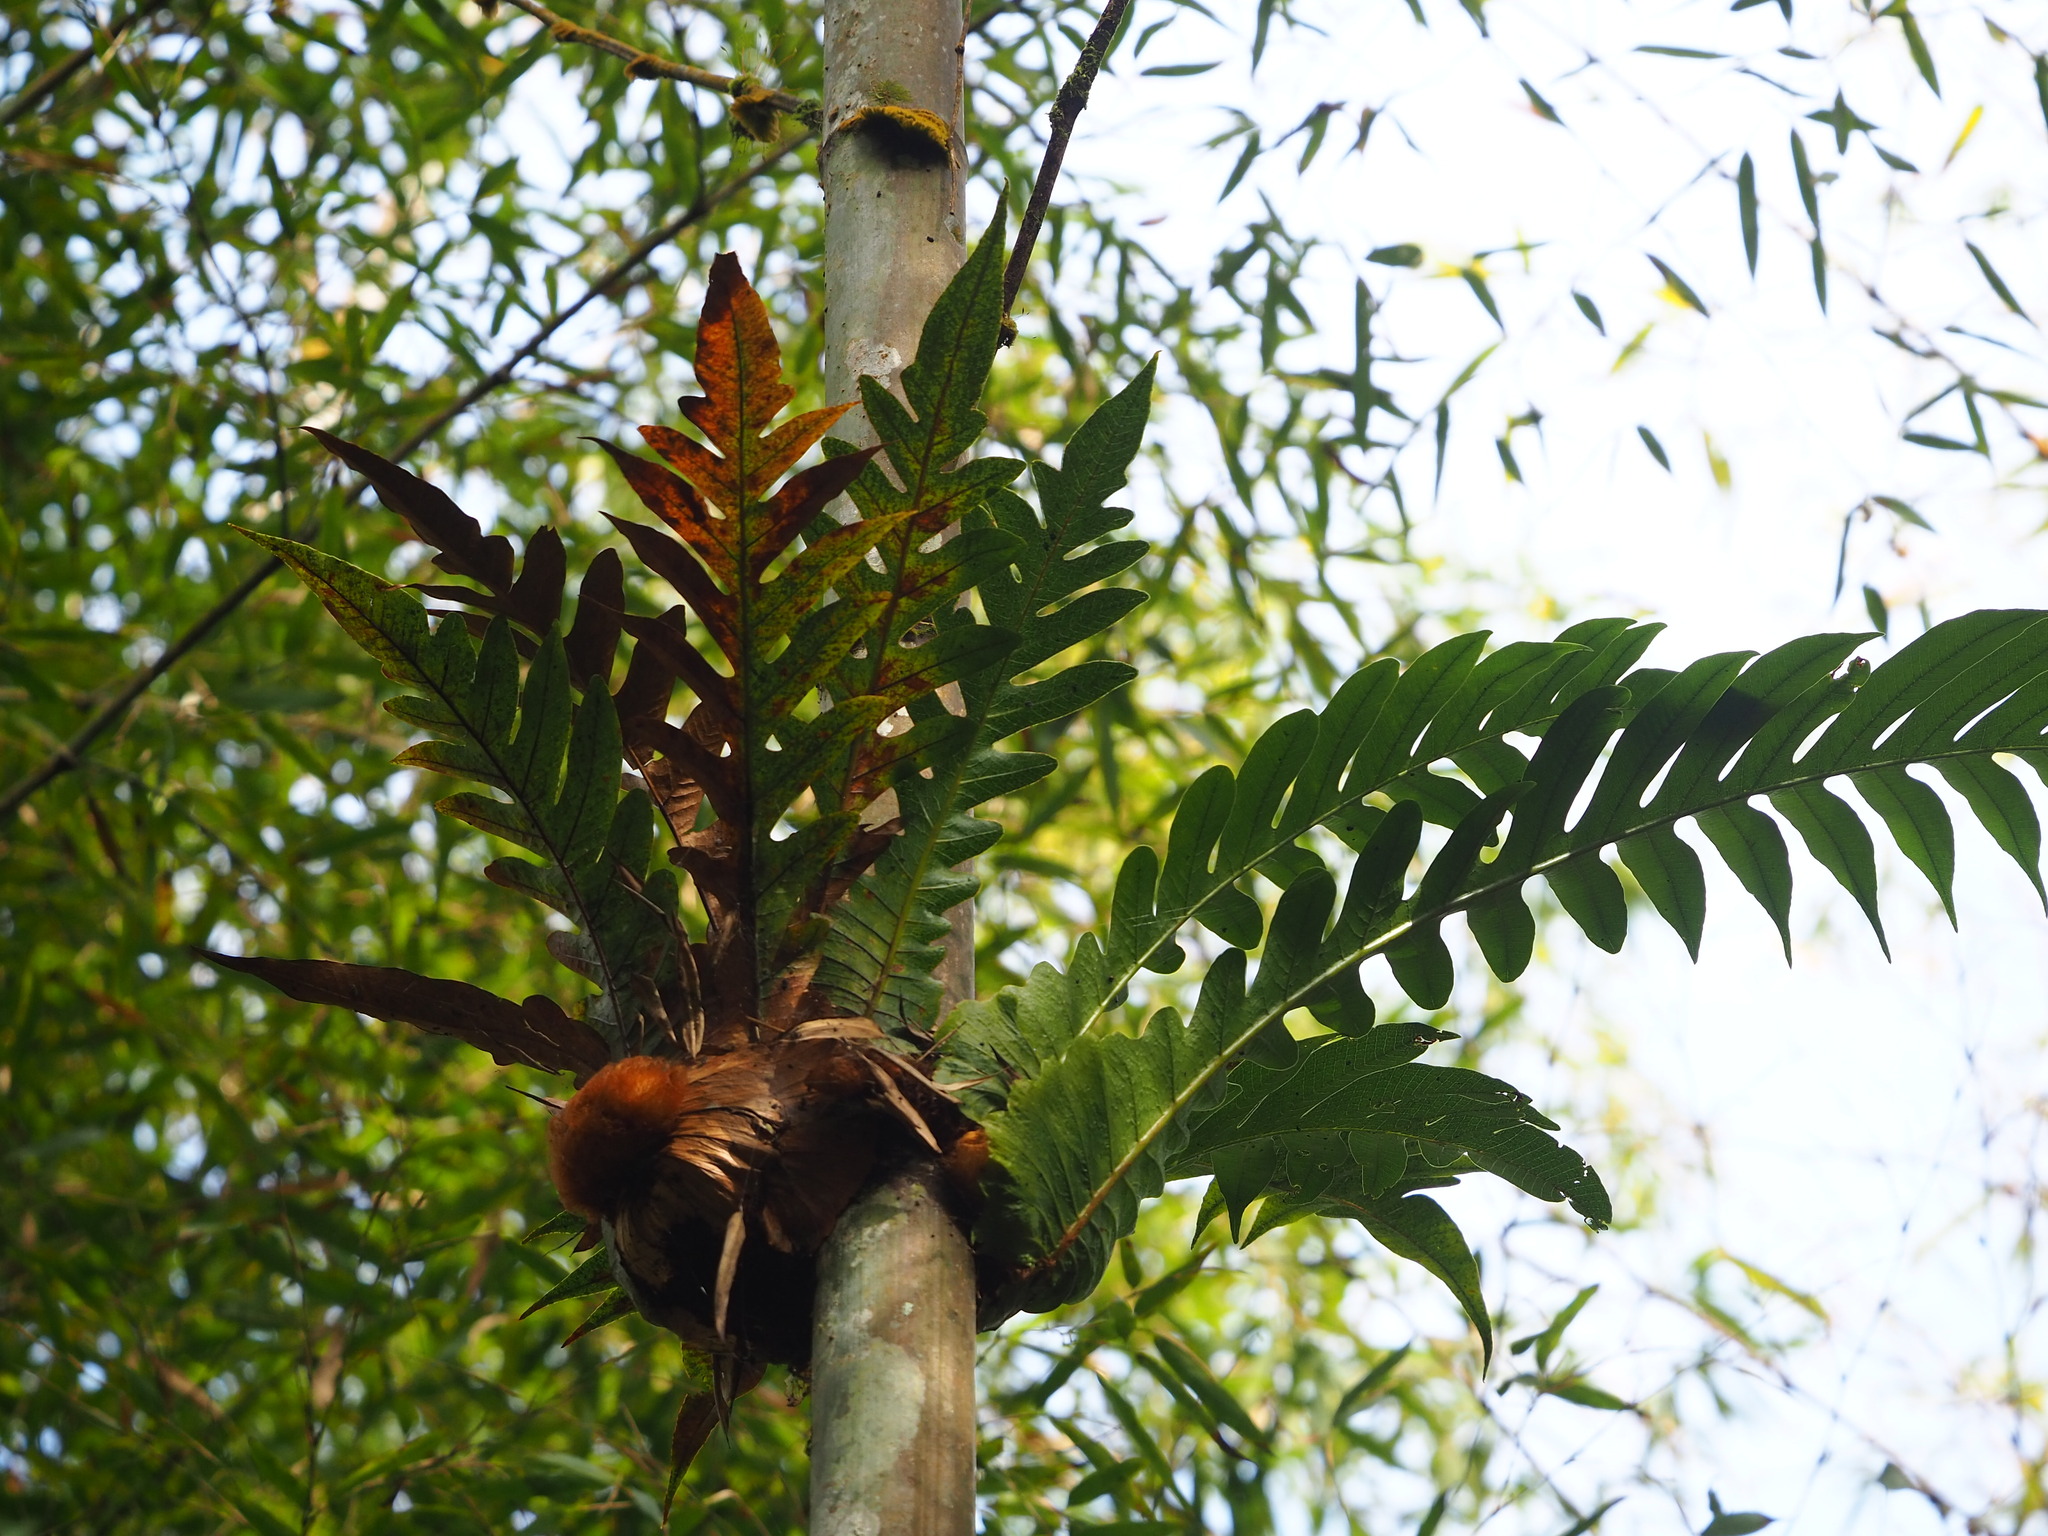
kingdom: Plantae
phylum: Tracheophyta
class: Polypodiopsida
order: Polypodiales
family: Polypodiaceae
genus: Drynaria
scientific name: Drynaria coronans
